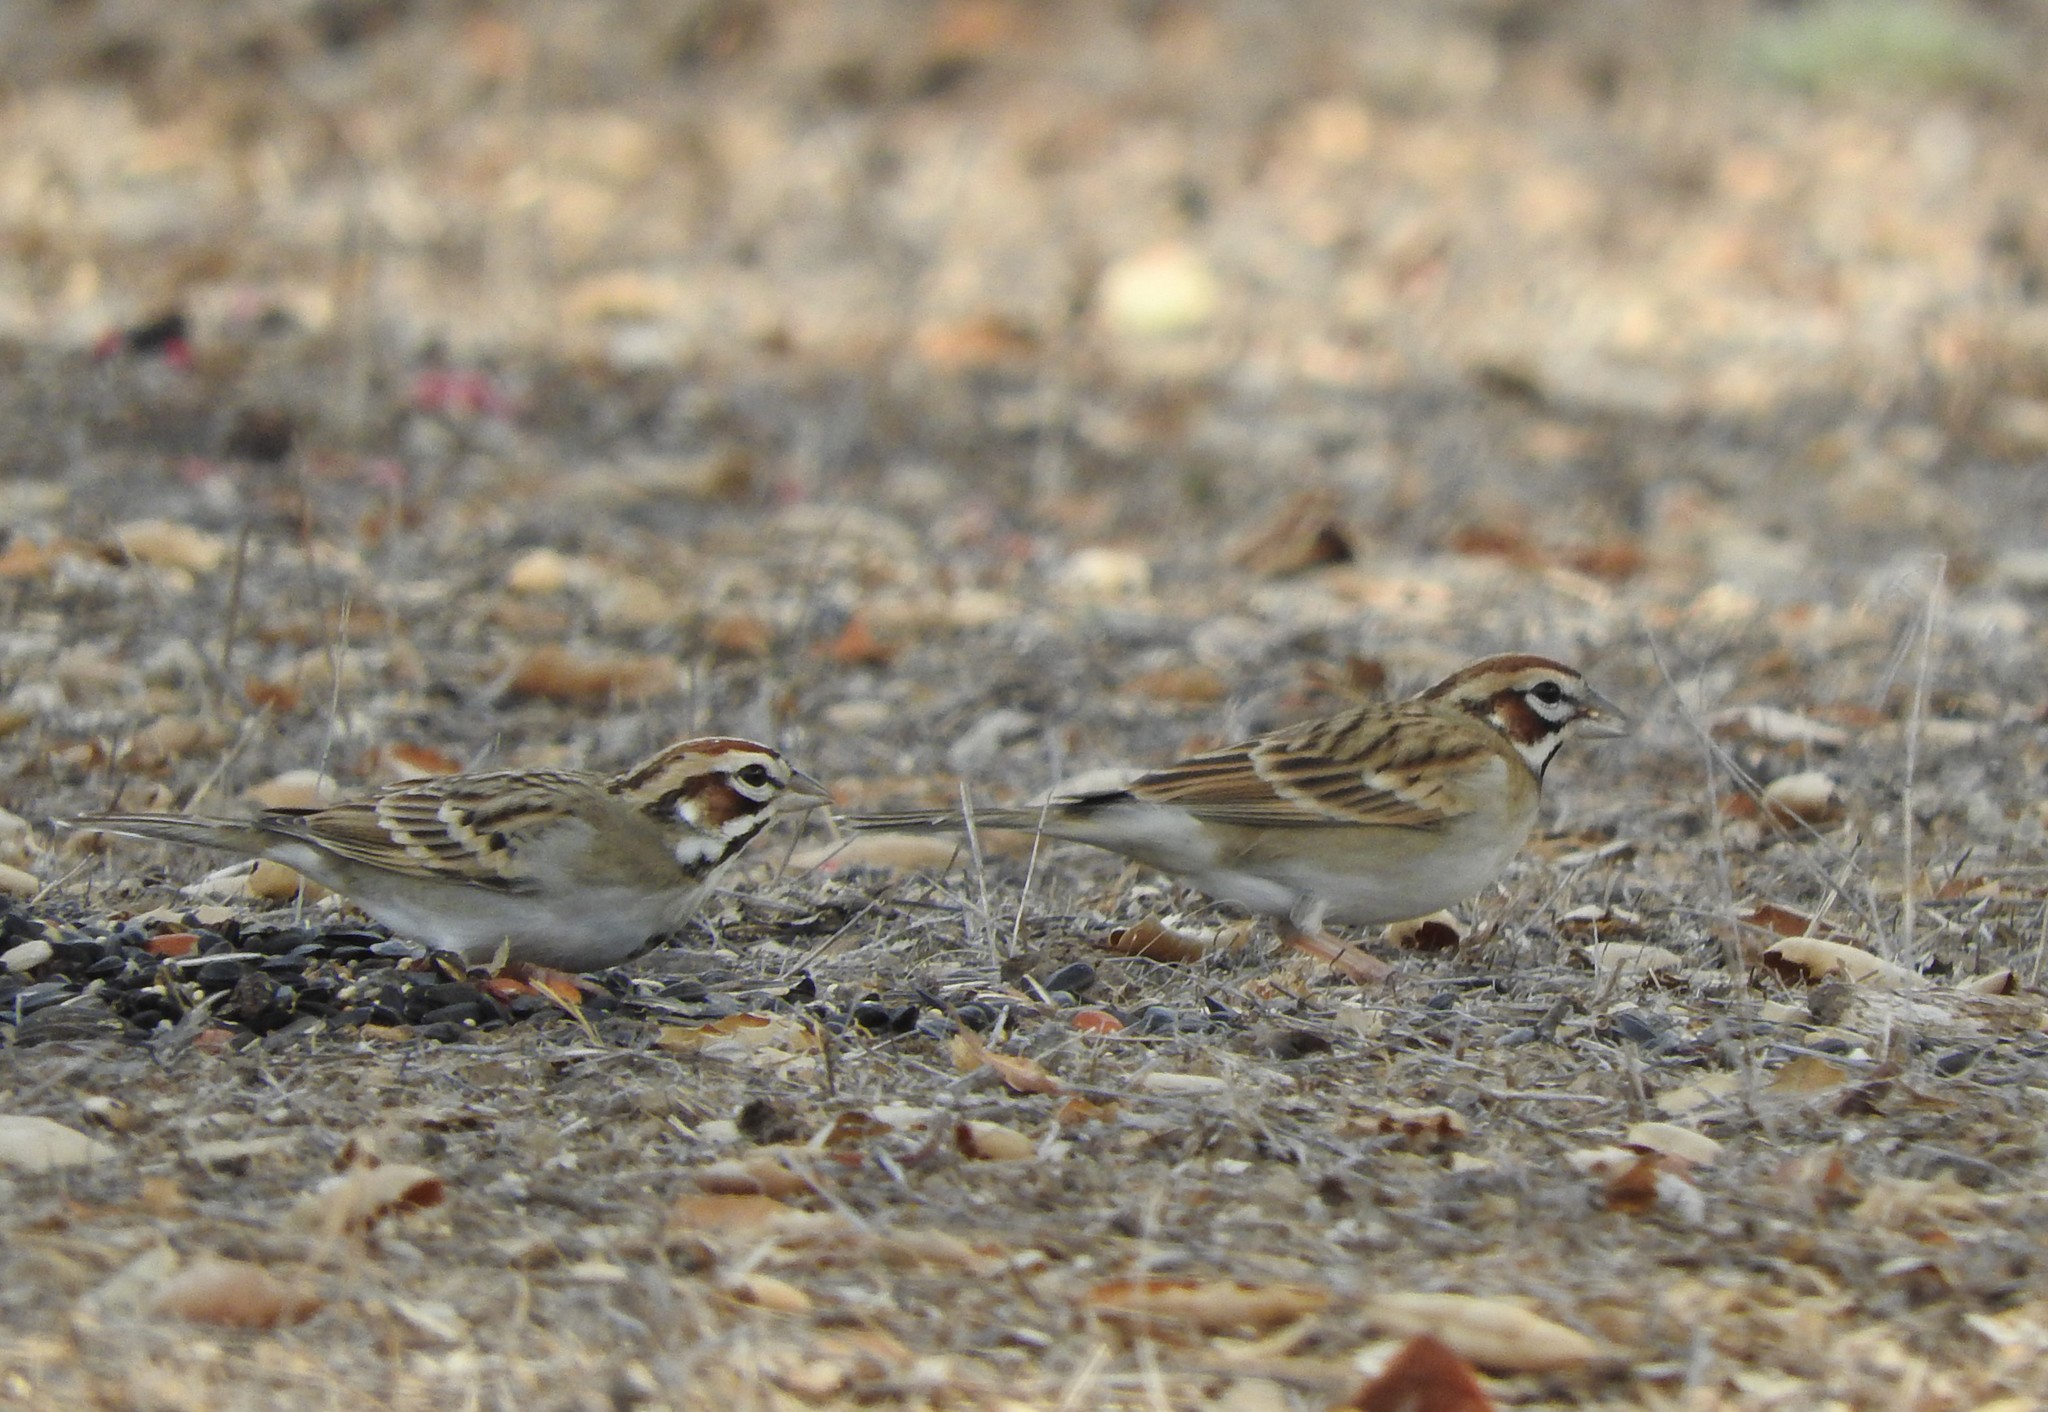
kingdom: Animalia
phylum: Chordata
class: Aves
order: Passeriformes
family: Passerellidae
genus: Chondestes
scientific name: Chondestes grammacus
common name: Lark sparrow
